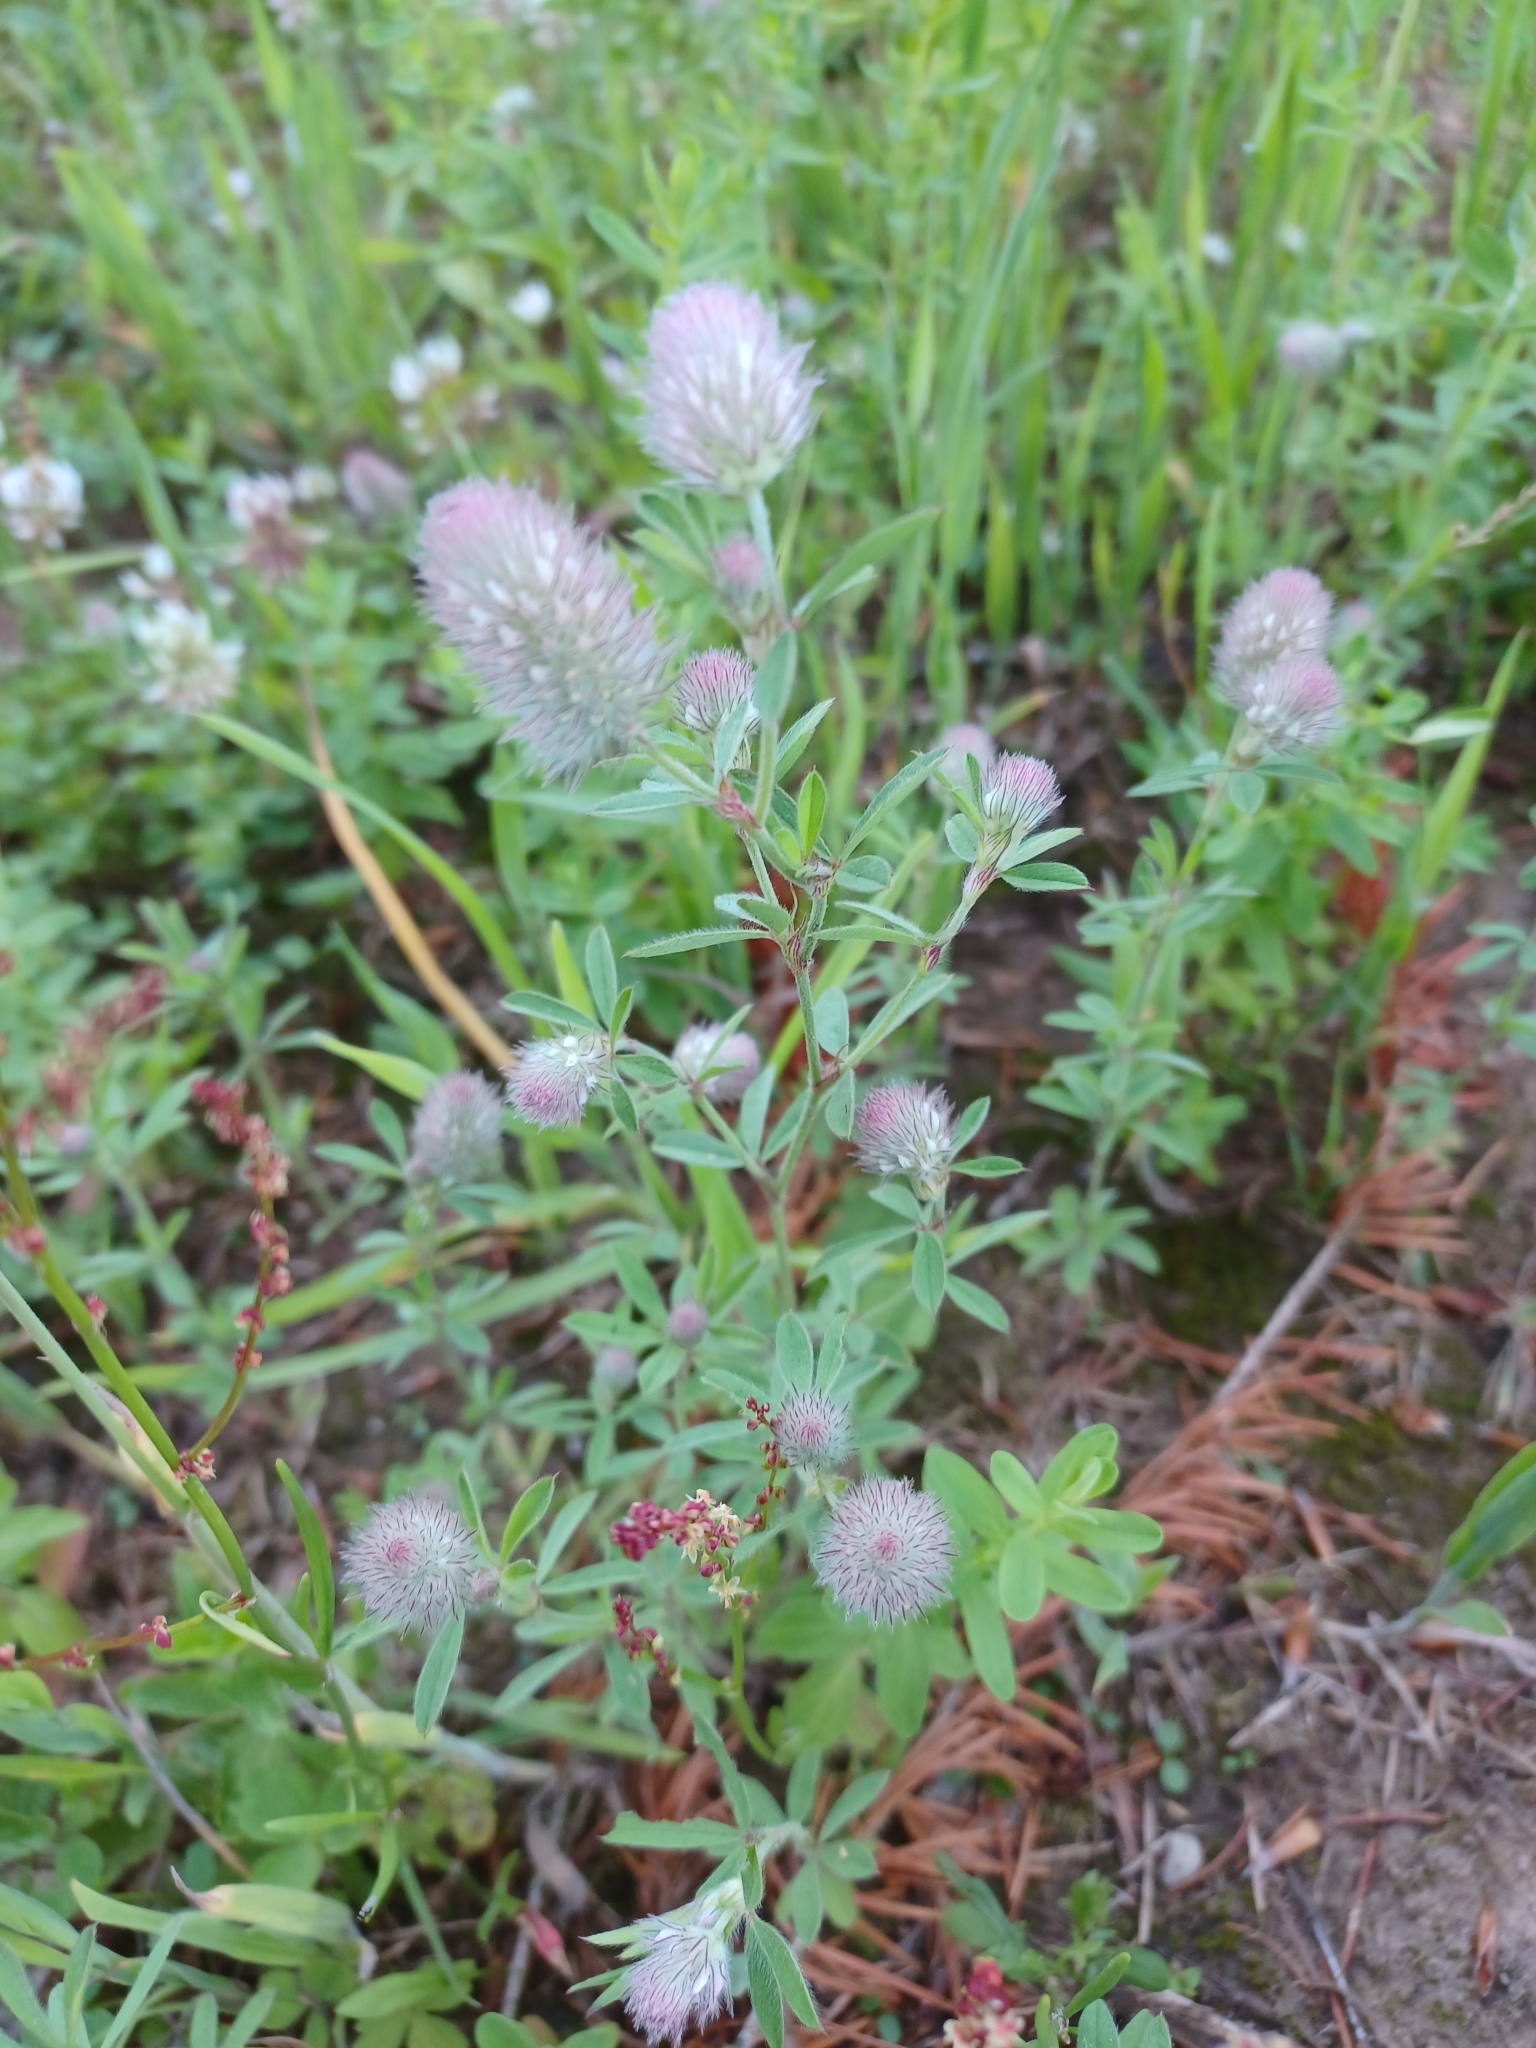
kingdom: Plantae
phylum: Tracheophyta
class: Magnoliopsida
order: Fabales
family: Fabaceae
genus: Trifolium
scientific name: Trifolium arvense
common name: Hare's-foot clover
